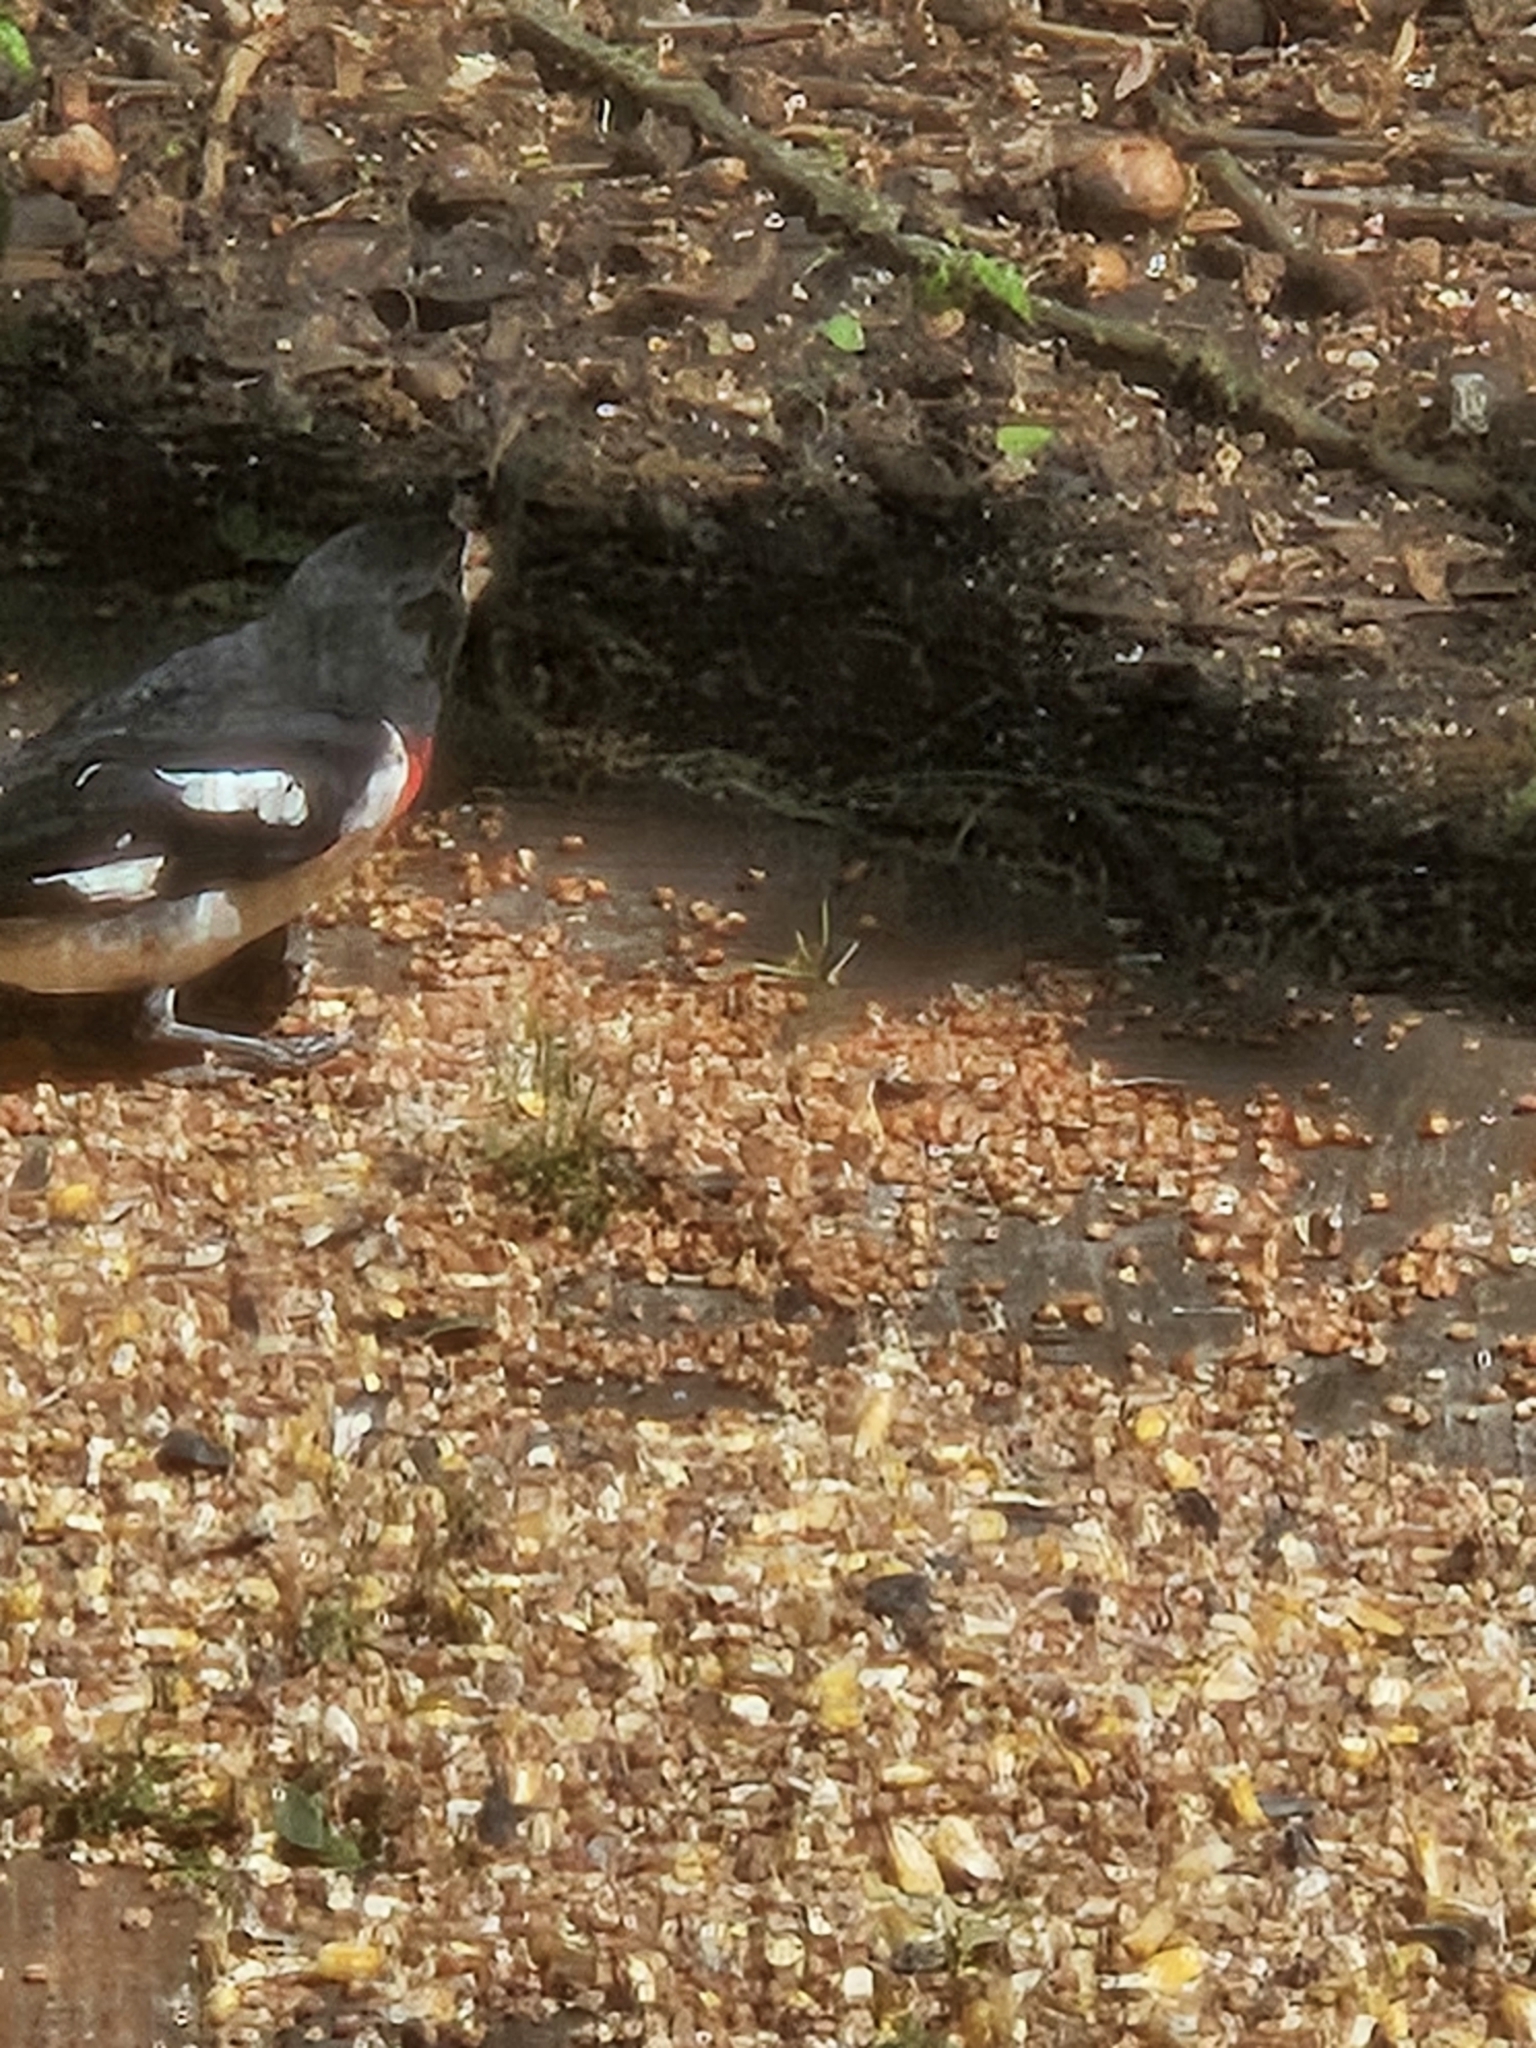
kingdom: Animalia
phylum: Chordata
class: Aves
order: Passeriformes
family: Cardinalidae
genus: Pheucticus
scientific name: Pheucticus ludovicianus
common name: Rose-breasted grosbeak
